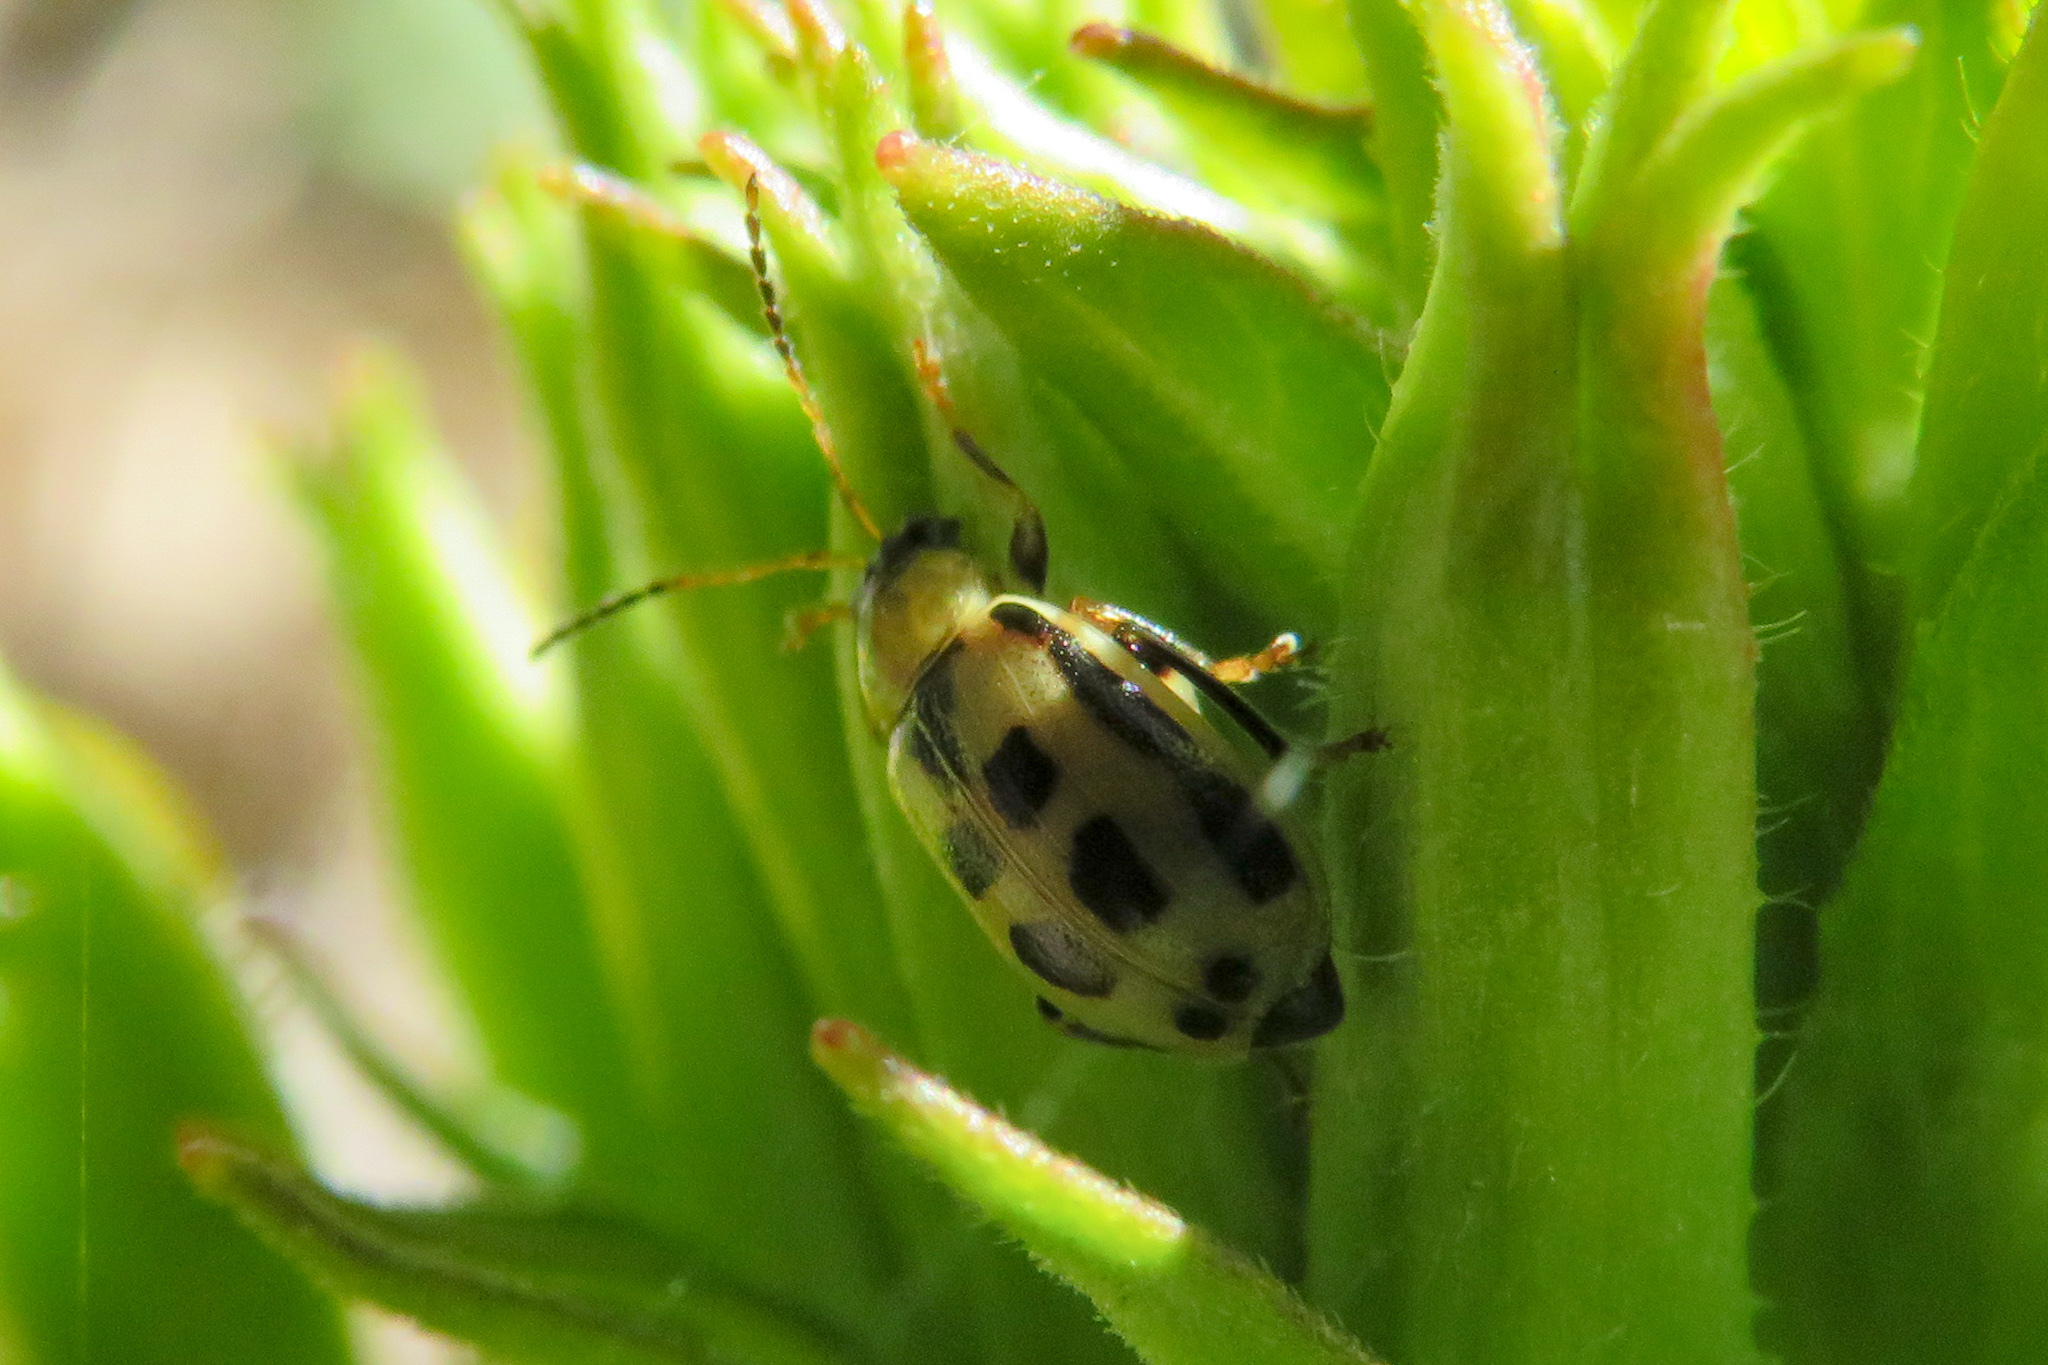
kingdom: Animalia
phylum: Arthropoda
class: Insecta
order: Coleoptera
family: Chrysomelidae
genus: Cerotoma
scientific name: Cerotoma trifurcata
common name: Bean leaf beetle
